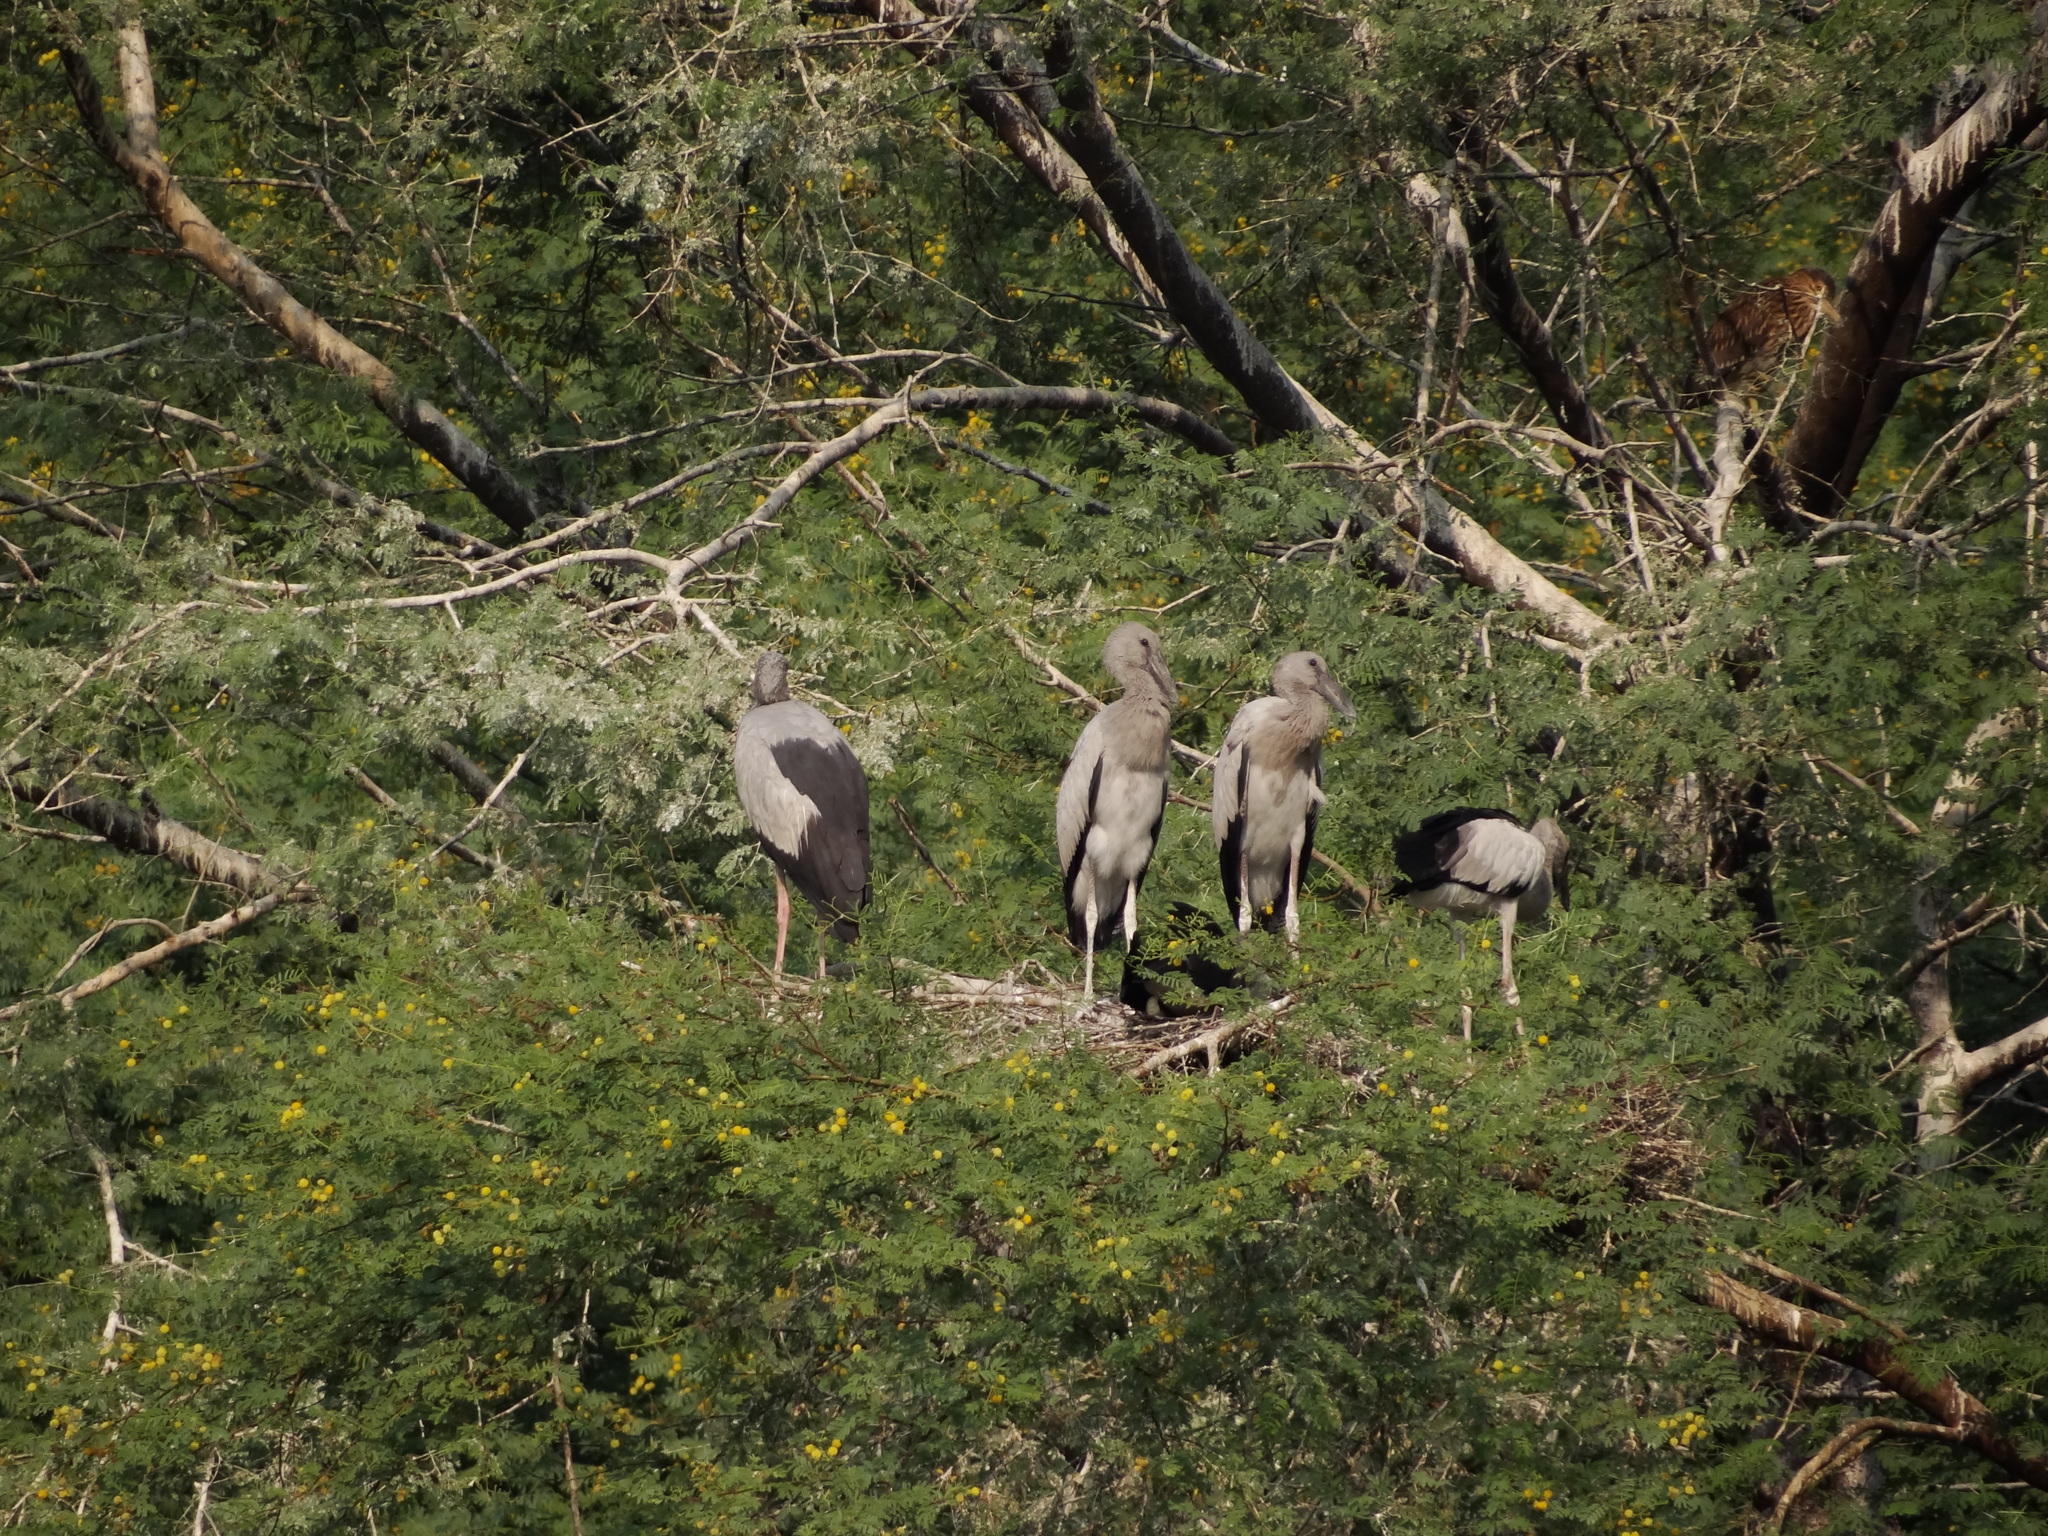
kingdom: Animalia
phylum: Chordata
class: Aves
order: Ciconiiformes
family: Ciconiidae
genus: Anastomus
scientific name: Anastomus oscitans
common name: Asian openbill
